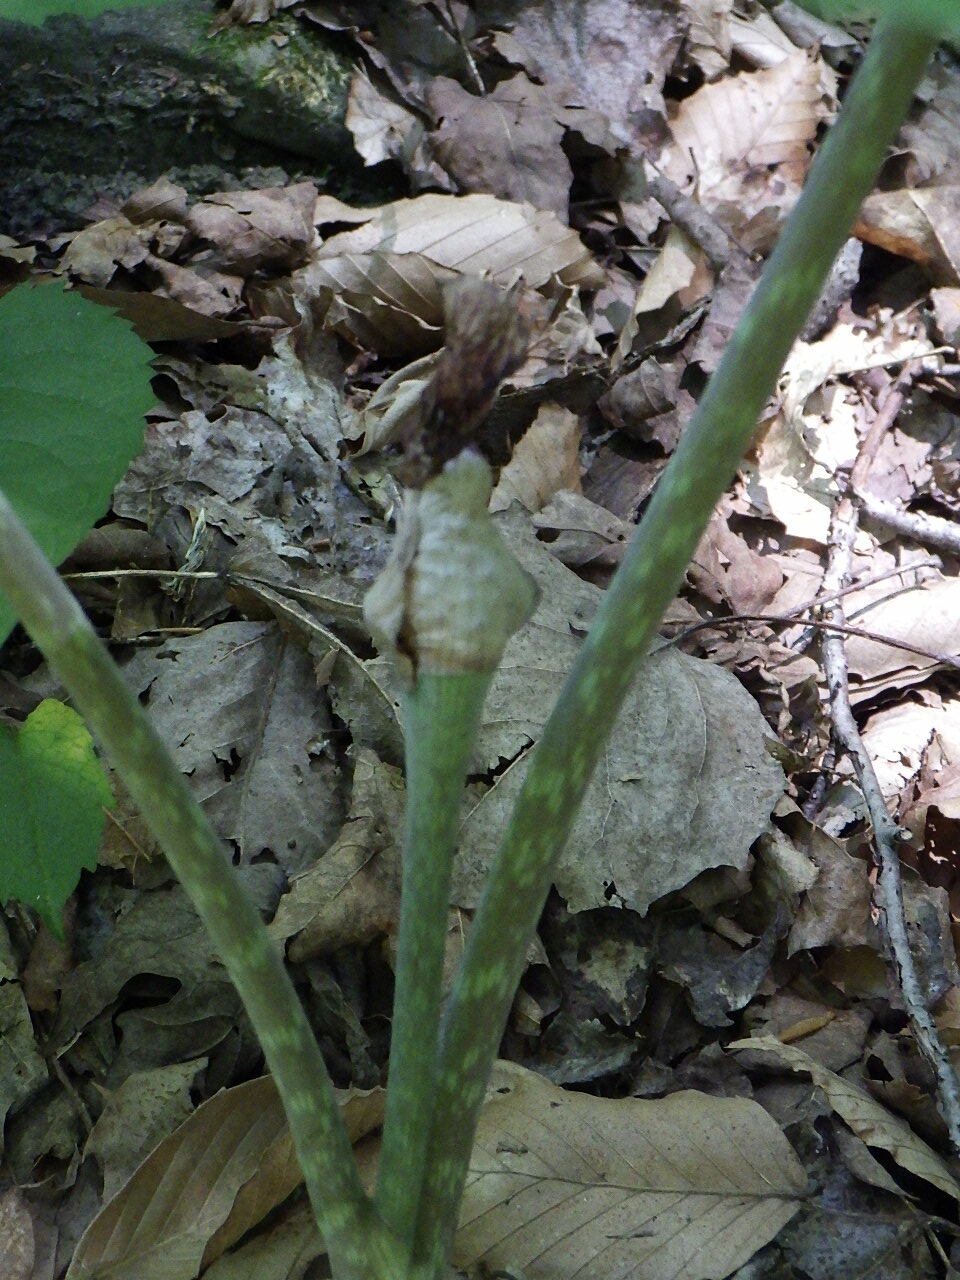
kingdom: Plantae
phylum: Tracheophyta
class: Liliopsida
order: Alismatales
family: Araceae
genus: Arisaema
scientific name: Arisaema triphyllum
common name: Jack-in-the-pulpit
